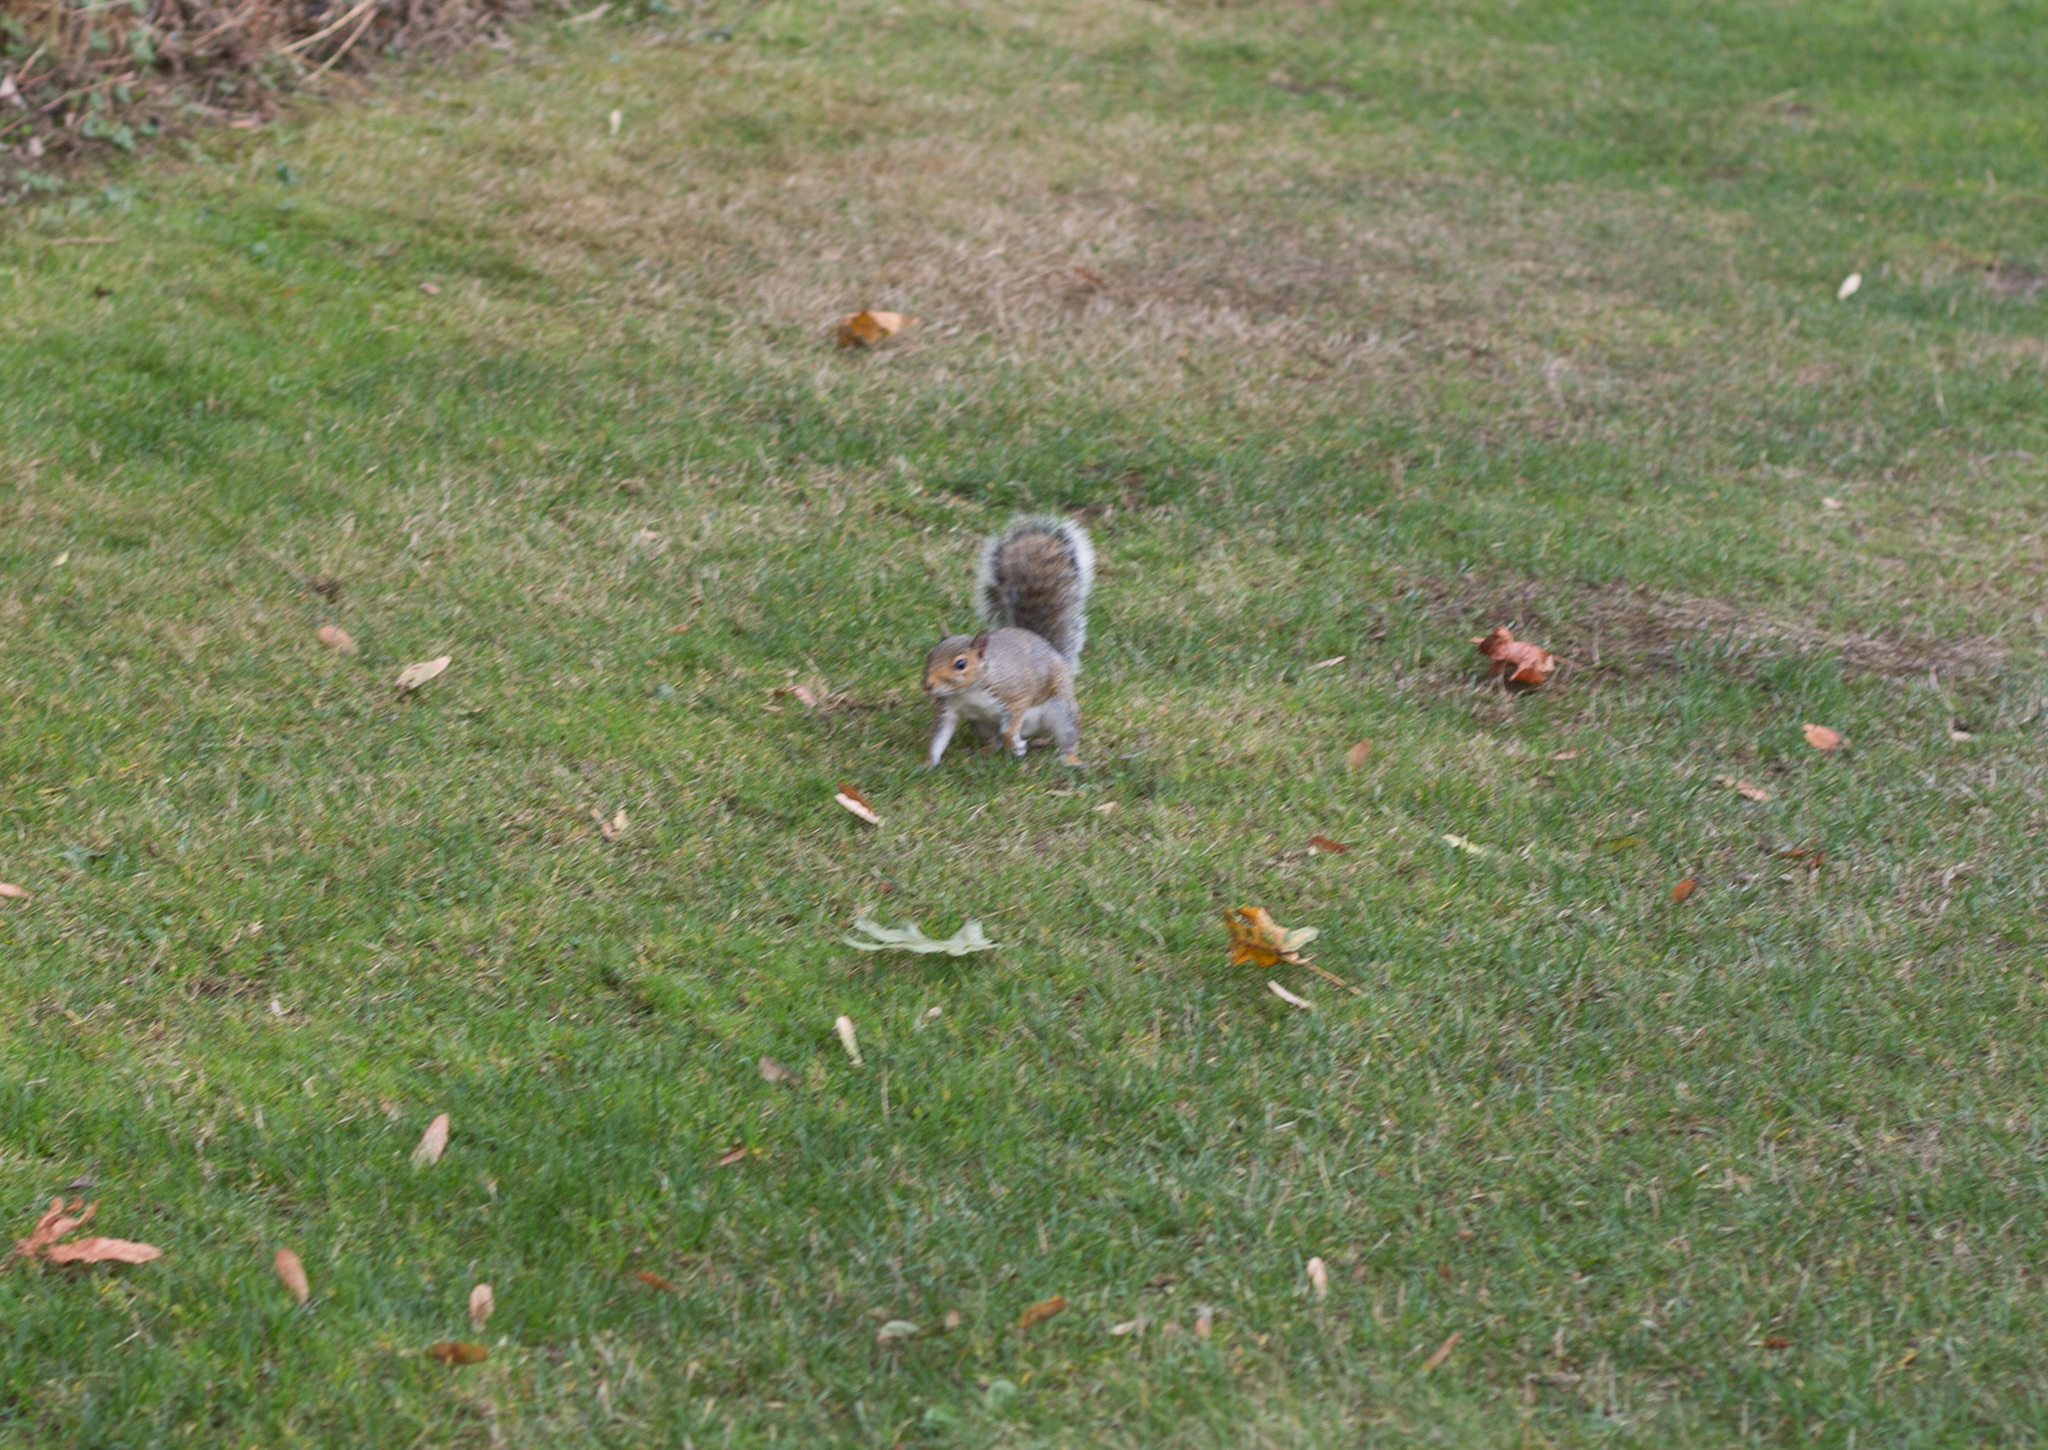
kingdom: Animalia
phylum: Chordata
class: Mammalia
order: Rodentia
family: Sciuridae
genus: Sciurus
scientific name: Sciurus carolinensis
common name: Eastern gray squirrel
